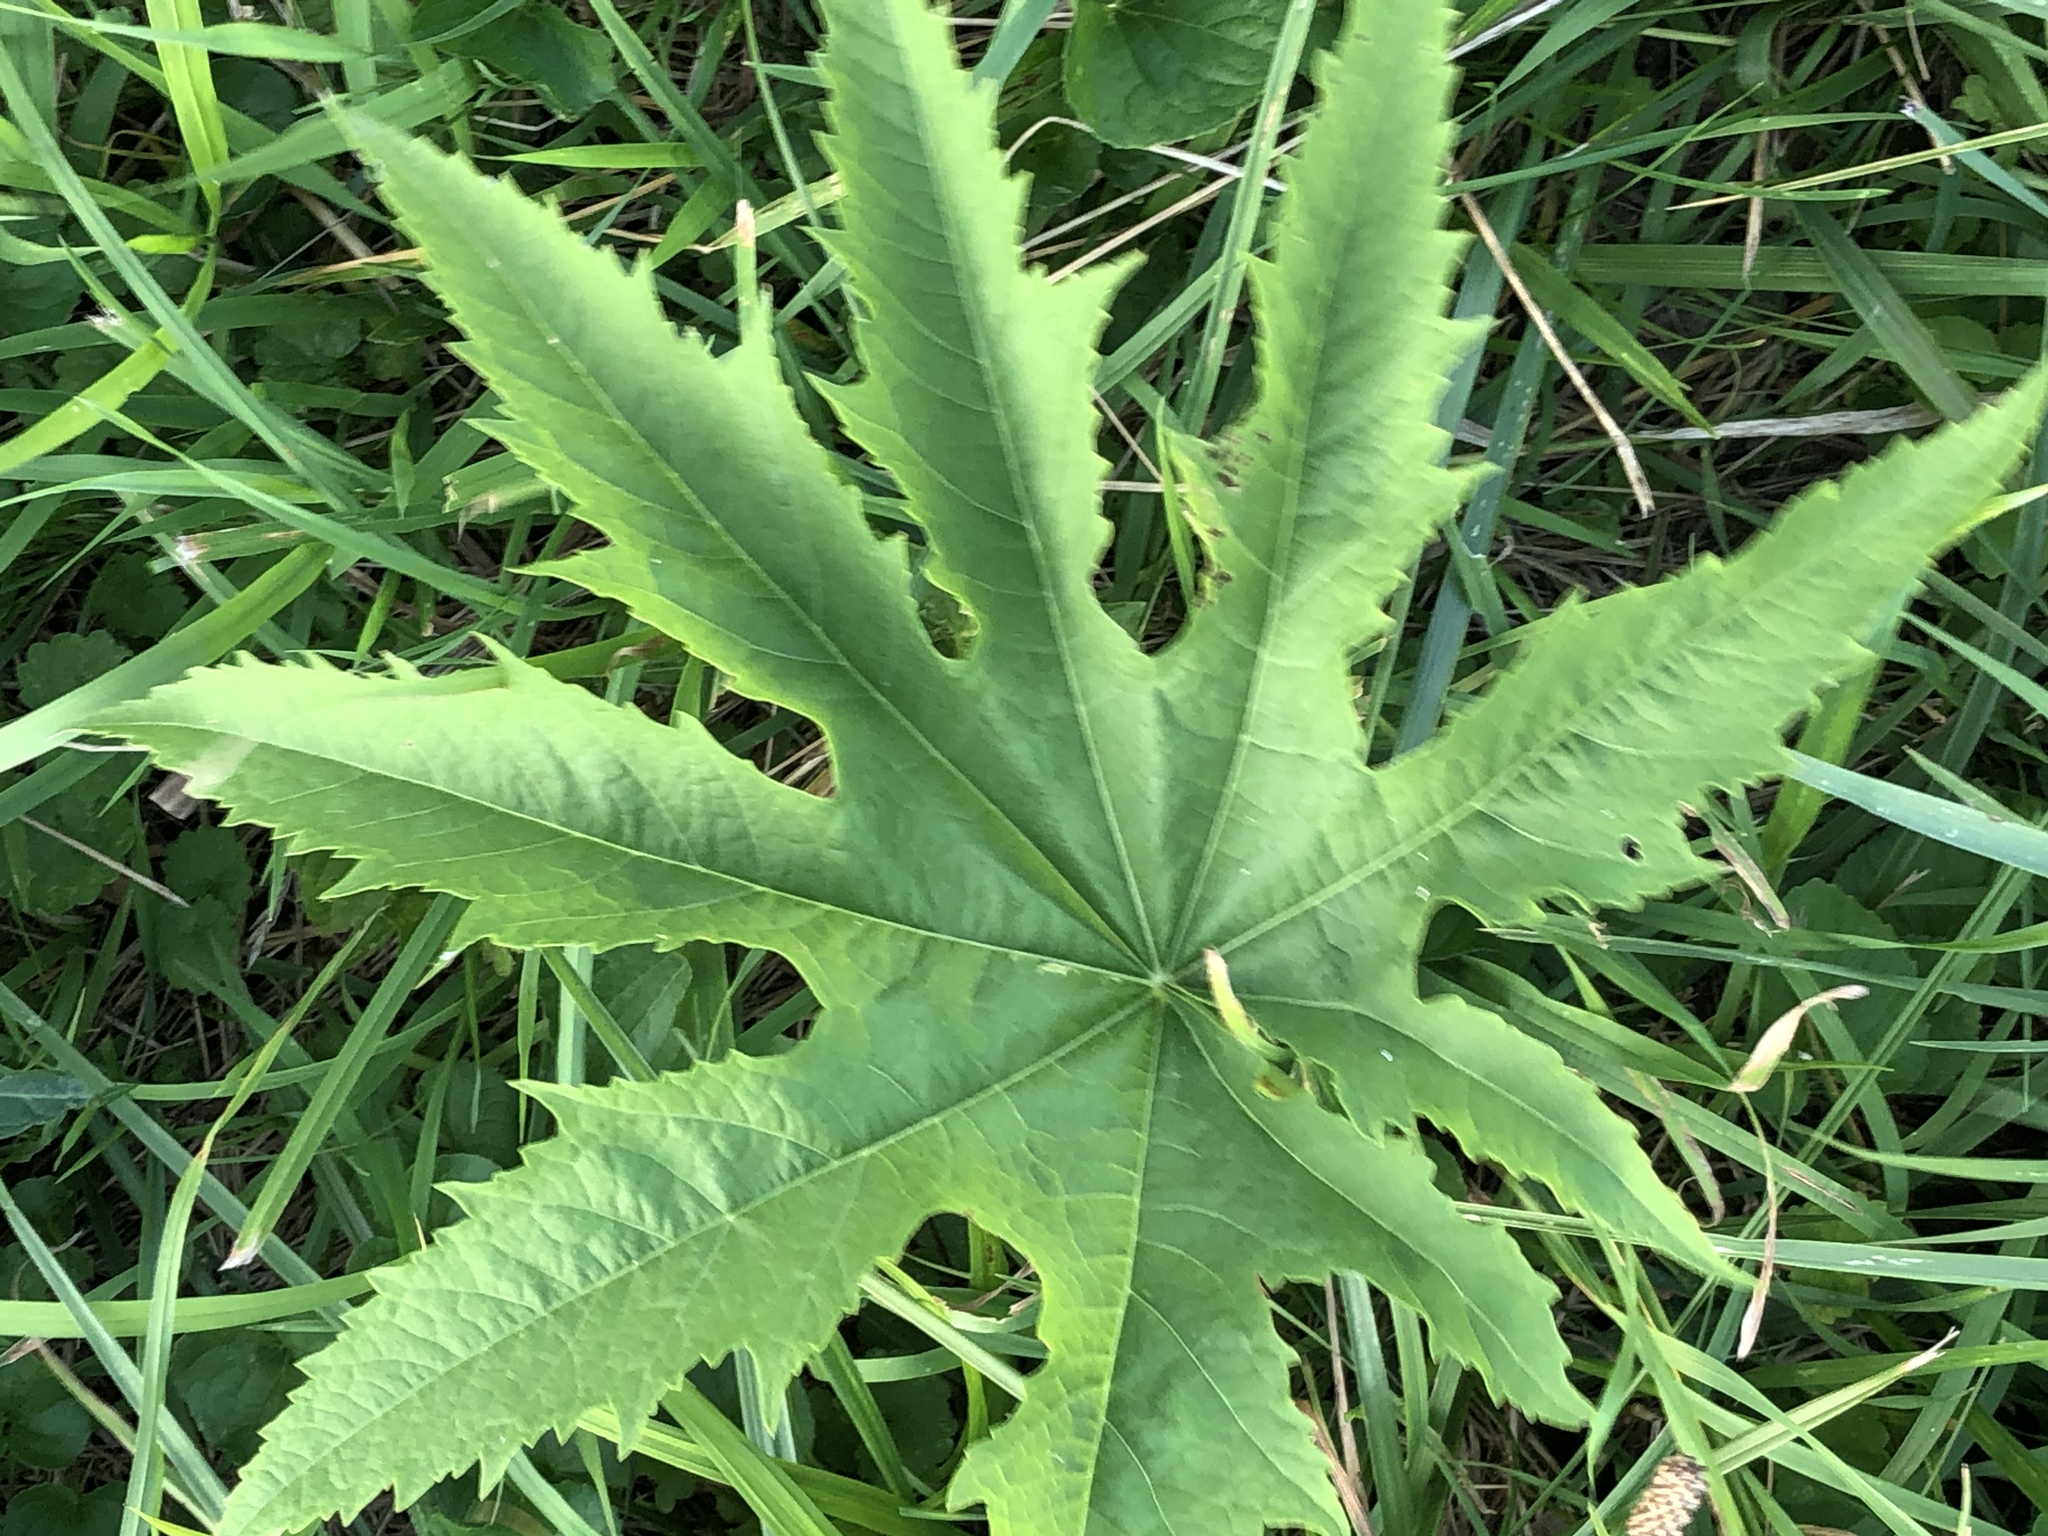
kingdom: Plantae
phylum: Tracheophyta
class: Magnoliopsida
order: Malvales
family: Malvaceae
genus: Napaea
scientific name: Napaea dioica
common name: Glade-mallow
